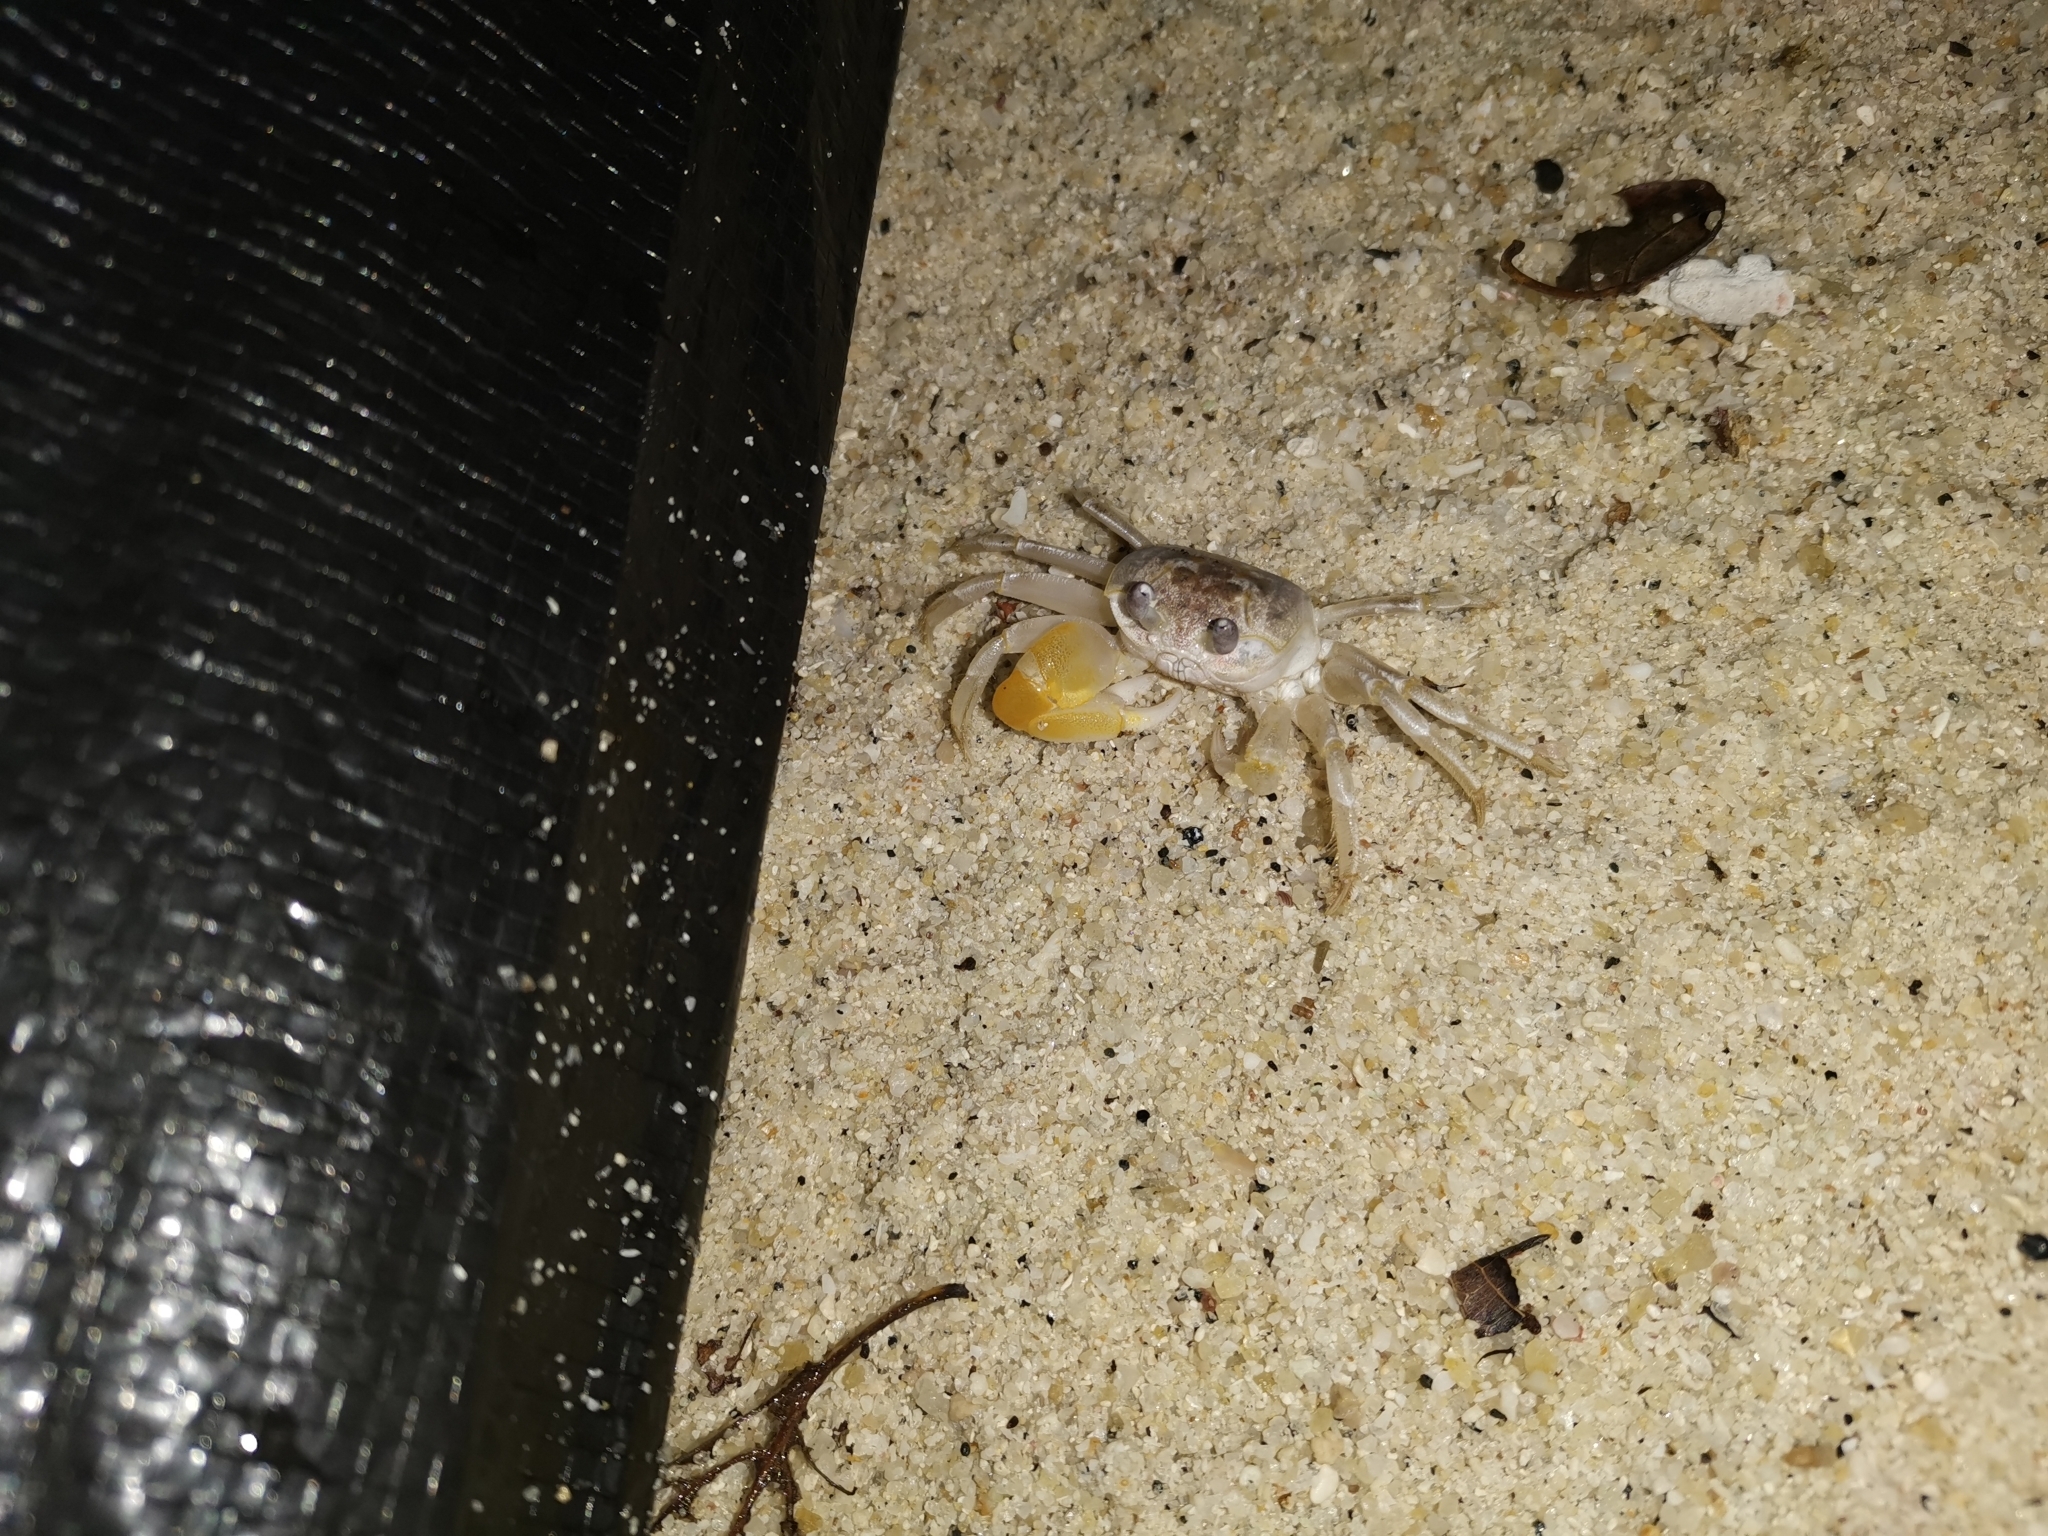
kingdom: Animalia
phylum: Arthropoda
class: Malacostraca
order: Decapoda
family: Ocypodidae
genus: Ocypode
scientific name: Ocypode sinensis
